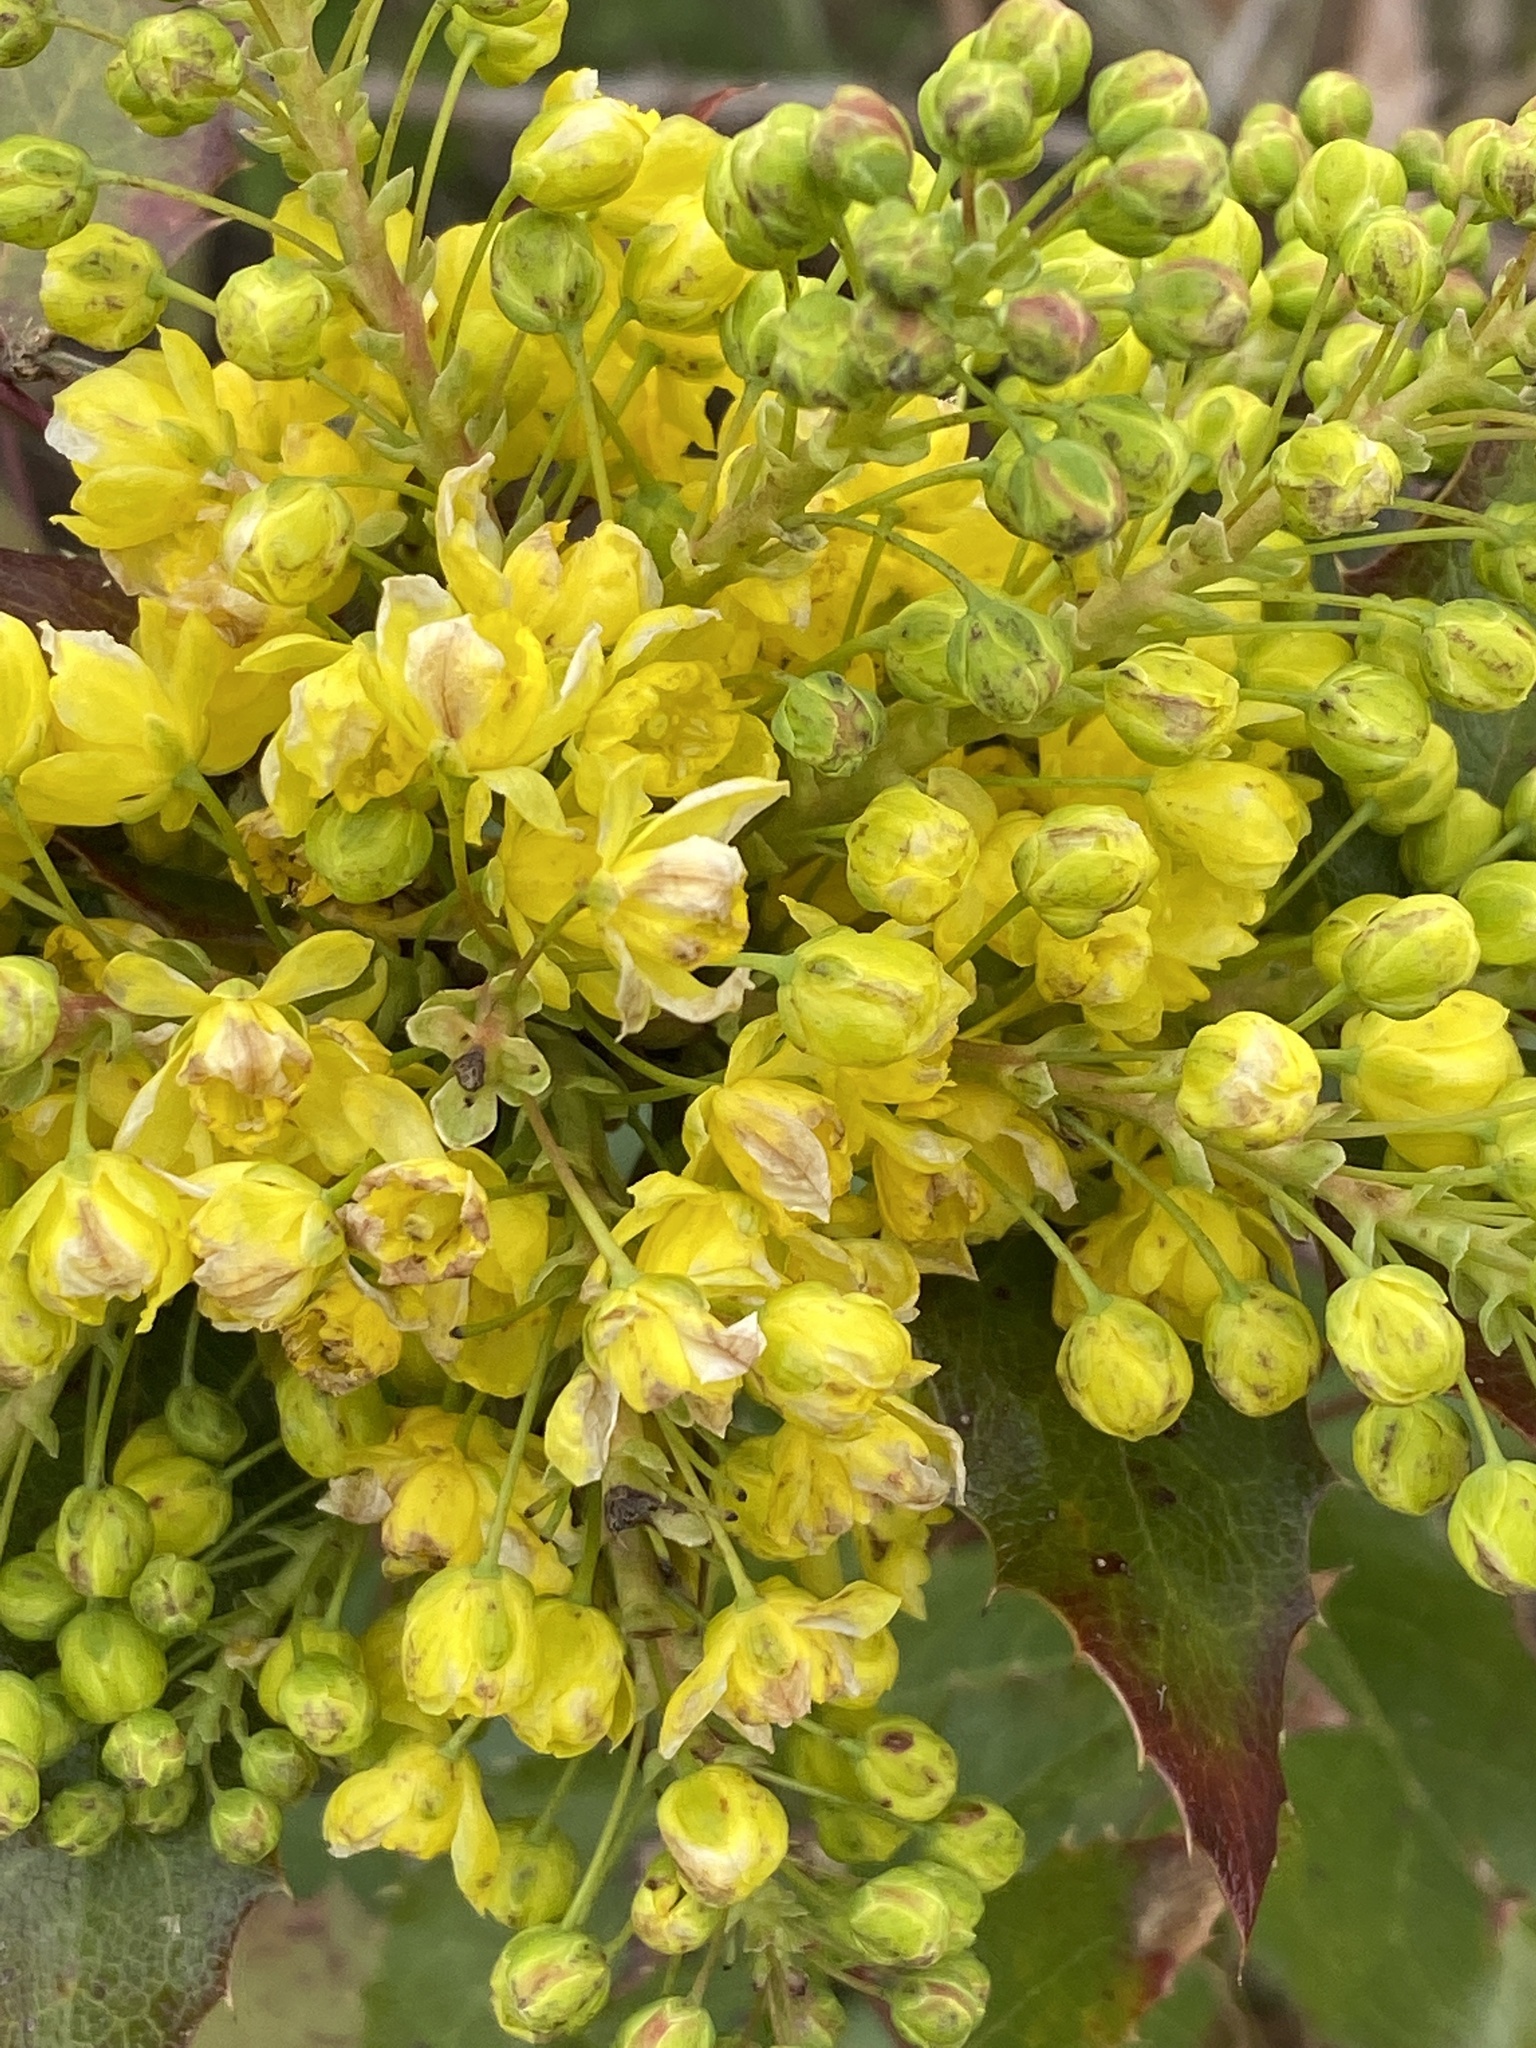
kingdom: Plantae
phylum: Tracheophyta
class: Magnoliopsida
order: Ranunculales
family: Berberidaceae
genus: Mahonia
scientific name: Mahonia aquifolium
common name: Oregon-grape
